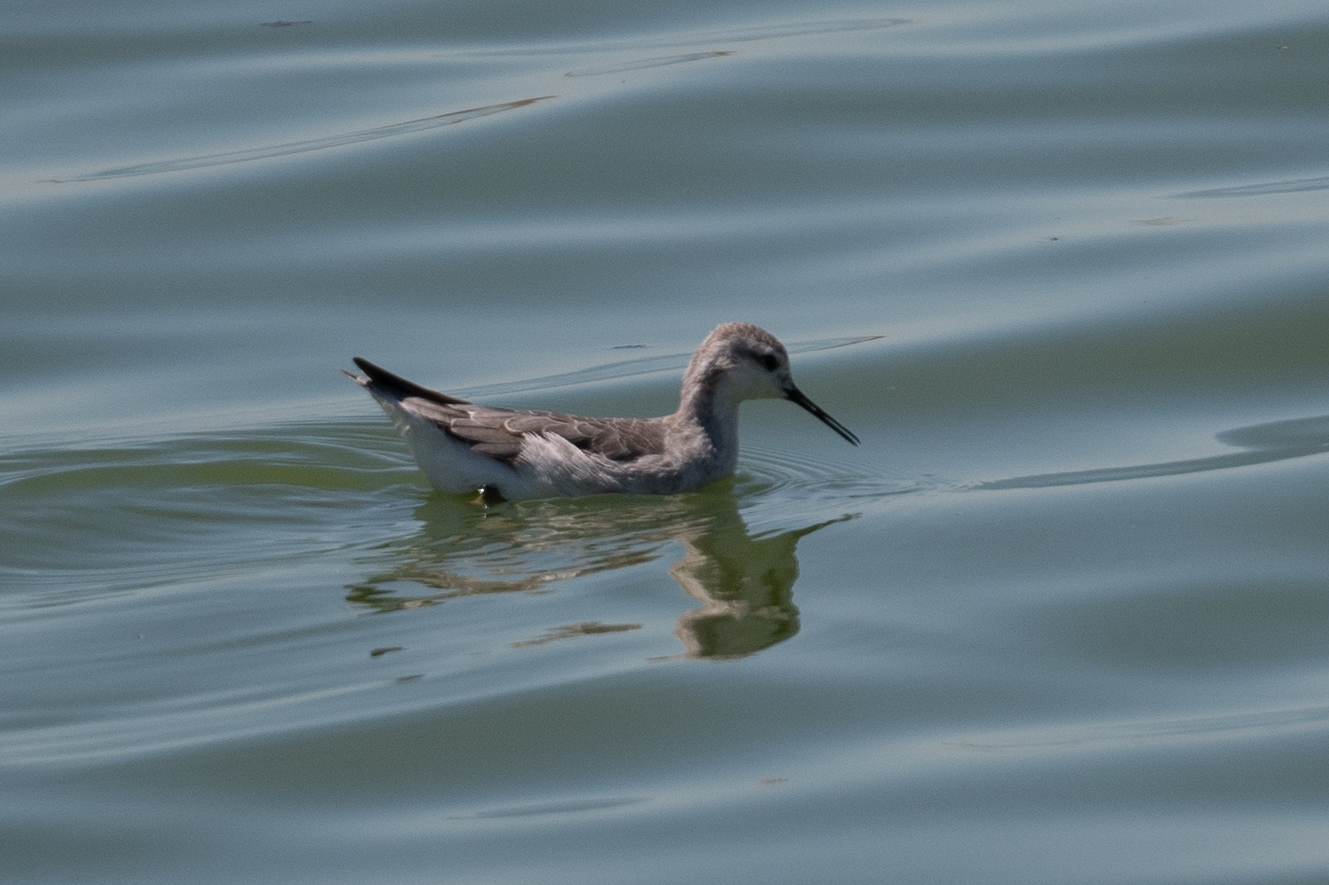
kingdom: Animalia
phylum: Chordata
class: Aves
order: Charadriiformes
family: Scolopacidae
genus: Phalaropus
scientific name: Phalaropus tricolor
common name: Wilson's phalarope
